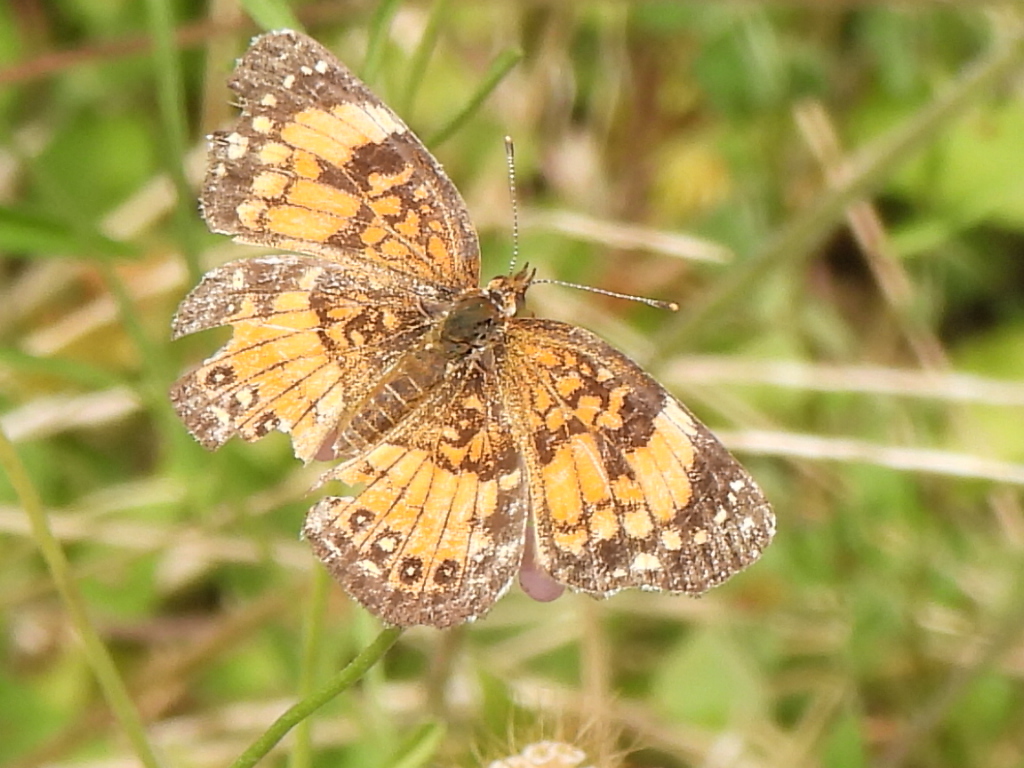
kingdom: Animalia
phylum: Arthropoda
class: Insecta
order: Lepidoptera
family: Nymphalidae
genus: Chlosyne
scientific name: Chlosyne nycteis
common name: Silvery checkerspot
